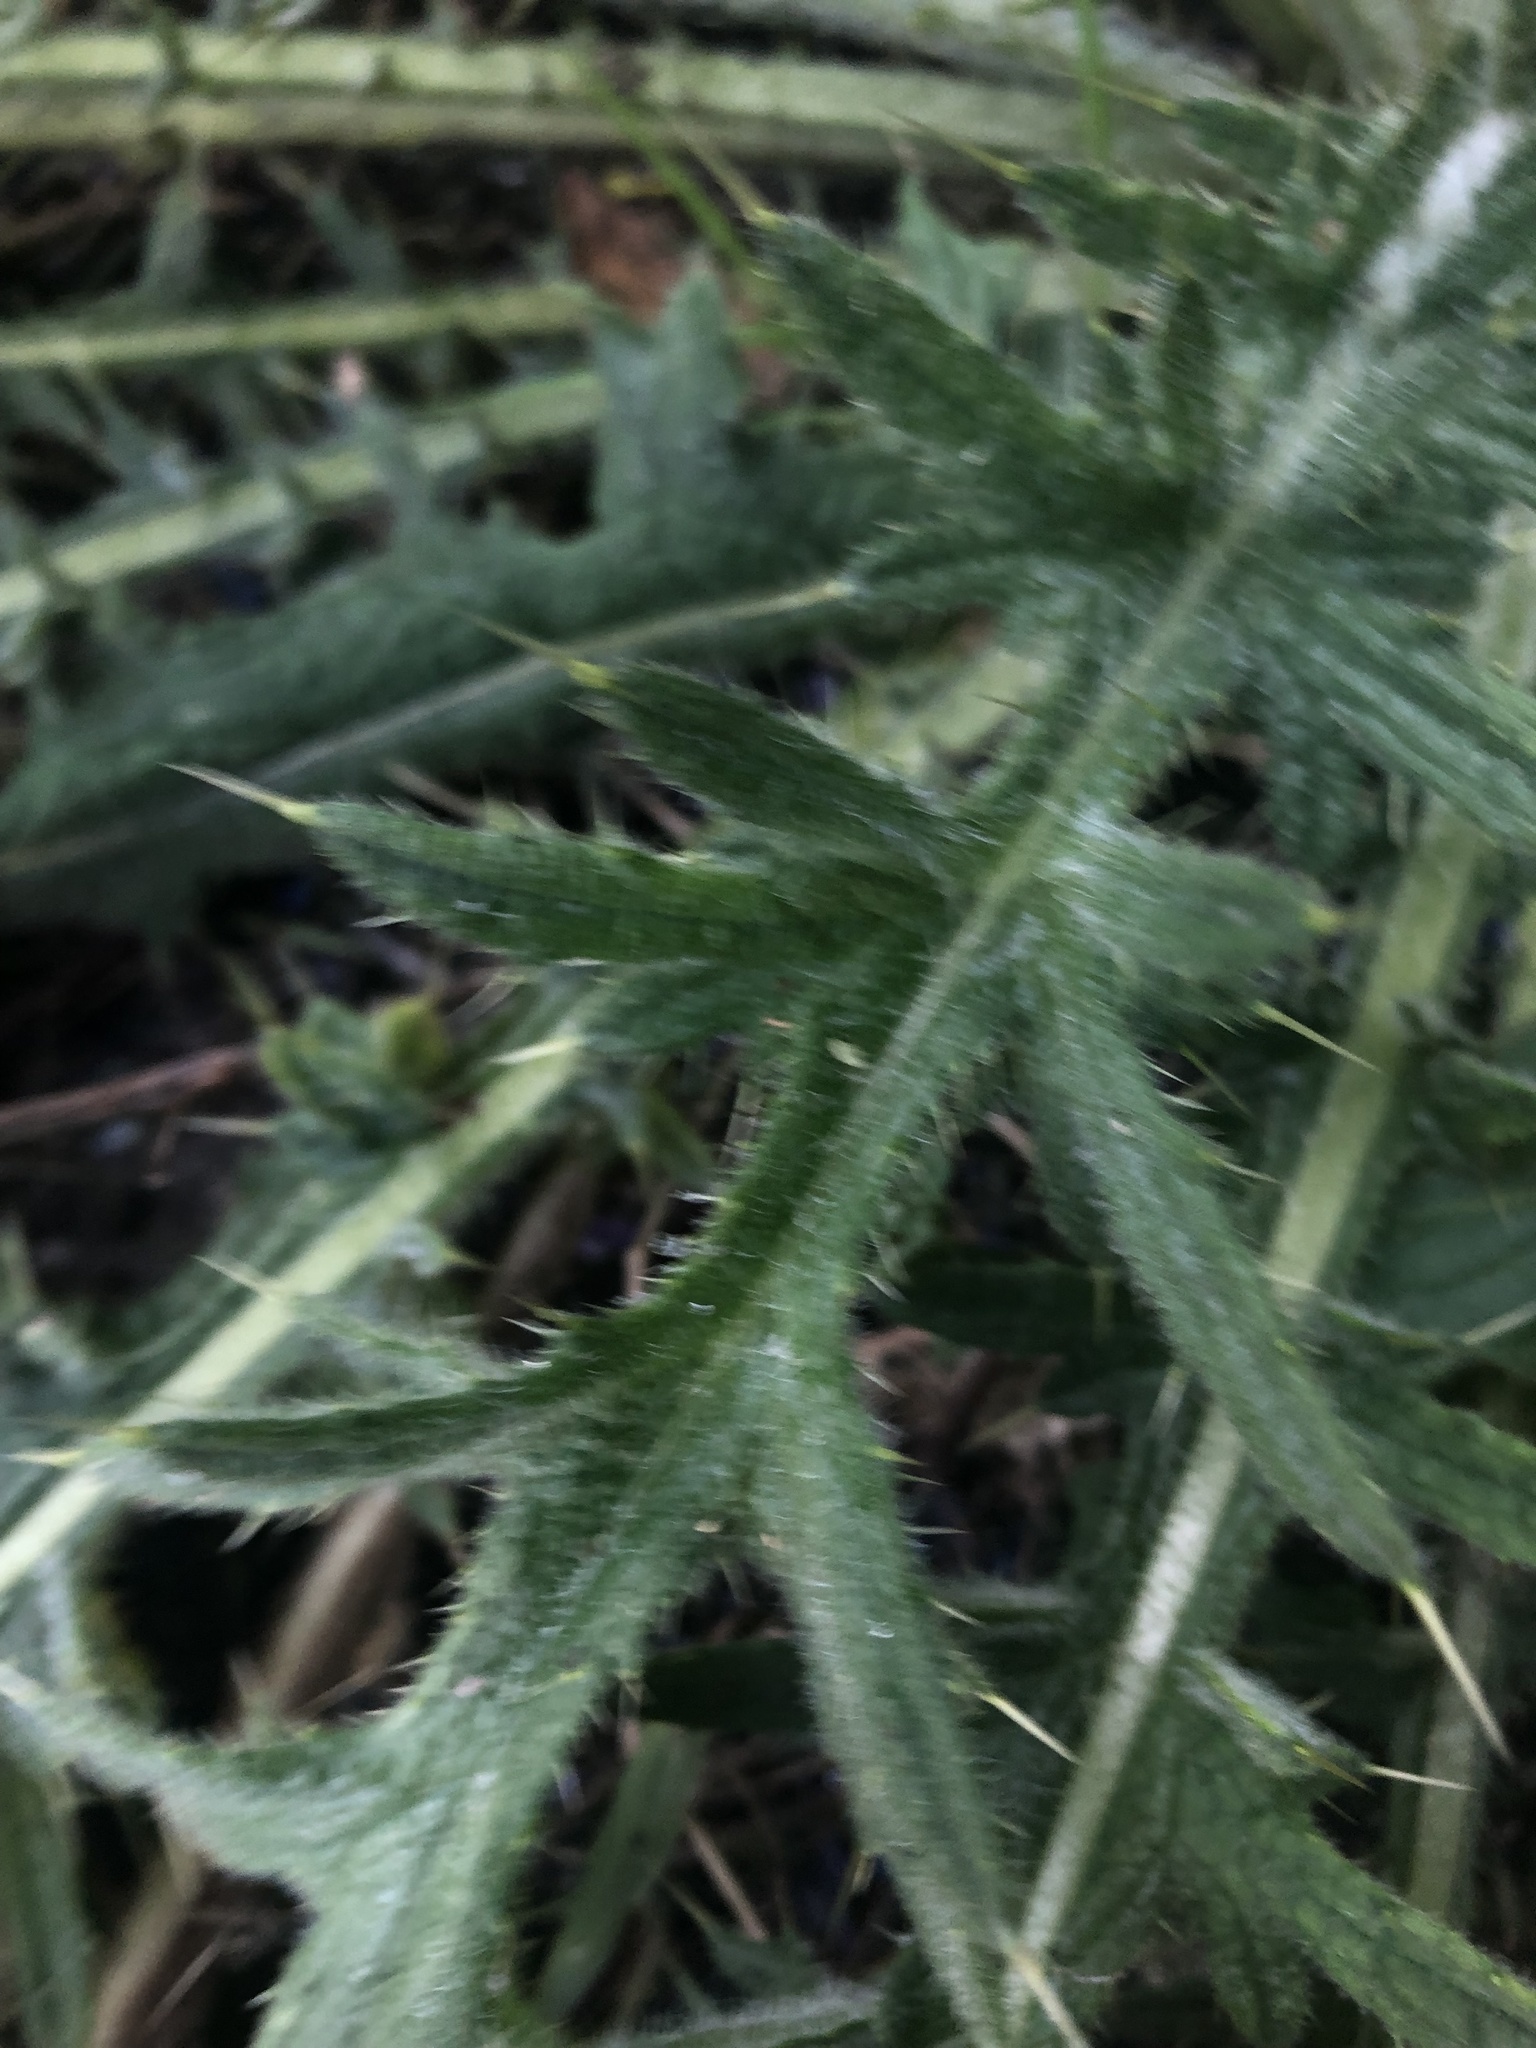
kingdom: Plantae
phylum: Tracheophyta
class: Magnoliopsida
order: Asterales
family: Asteraceae
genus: Cirsium
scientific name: Cirsium vulgare
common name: Bull thistle
